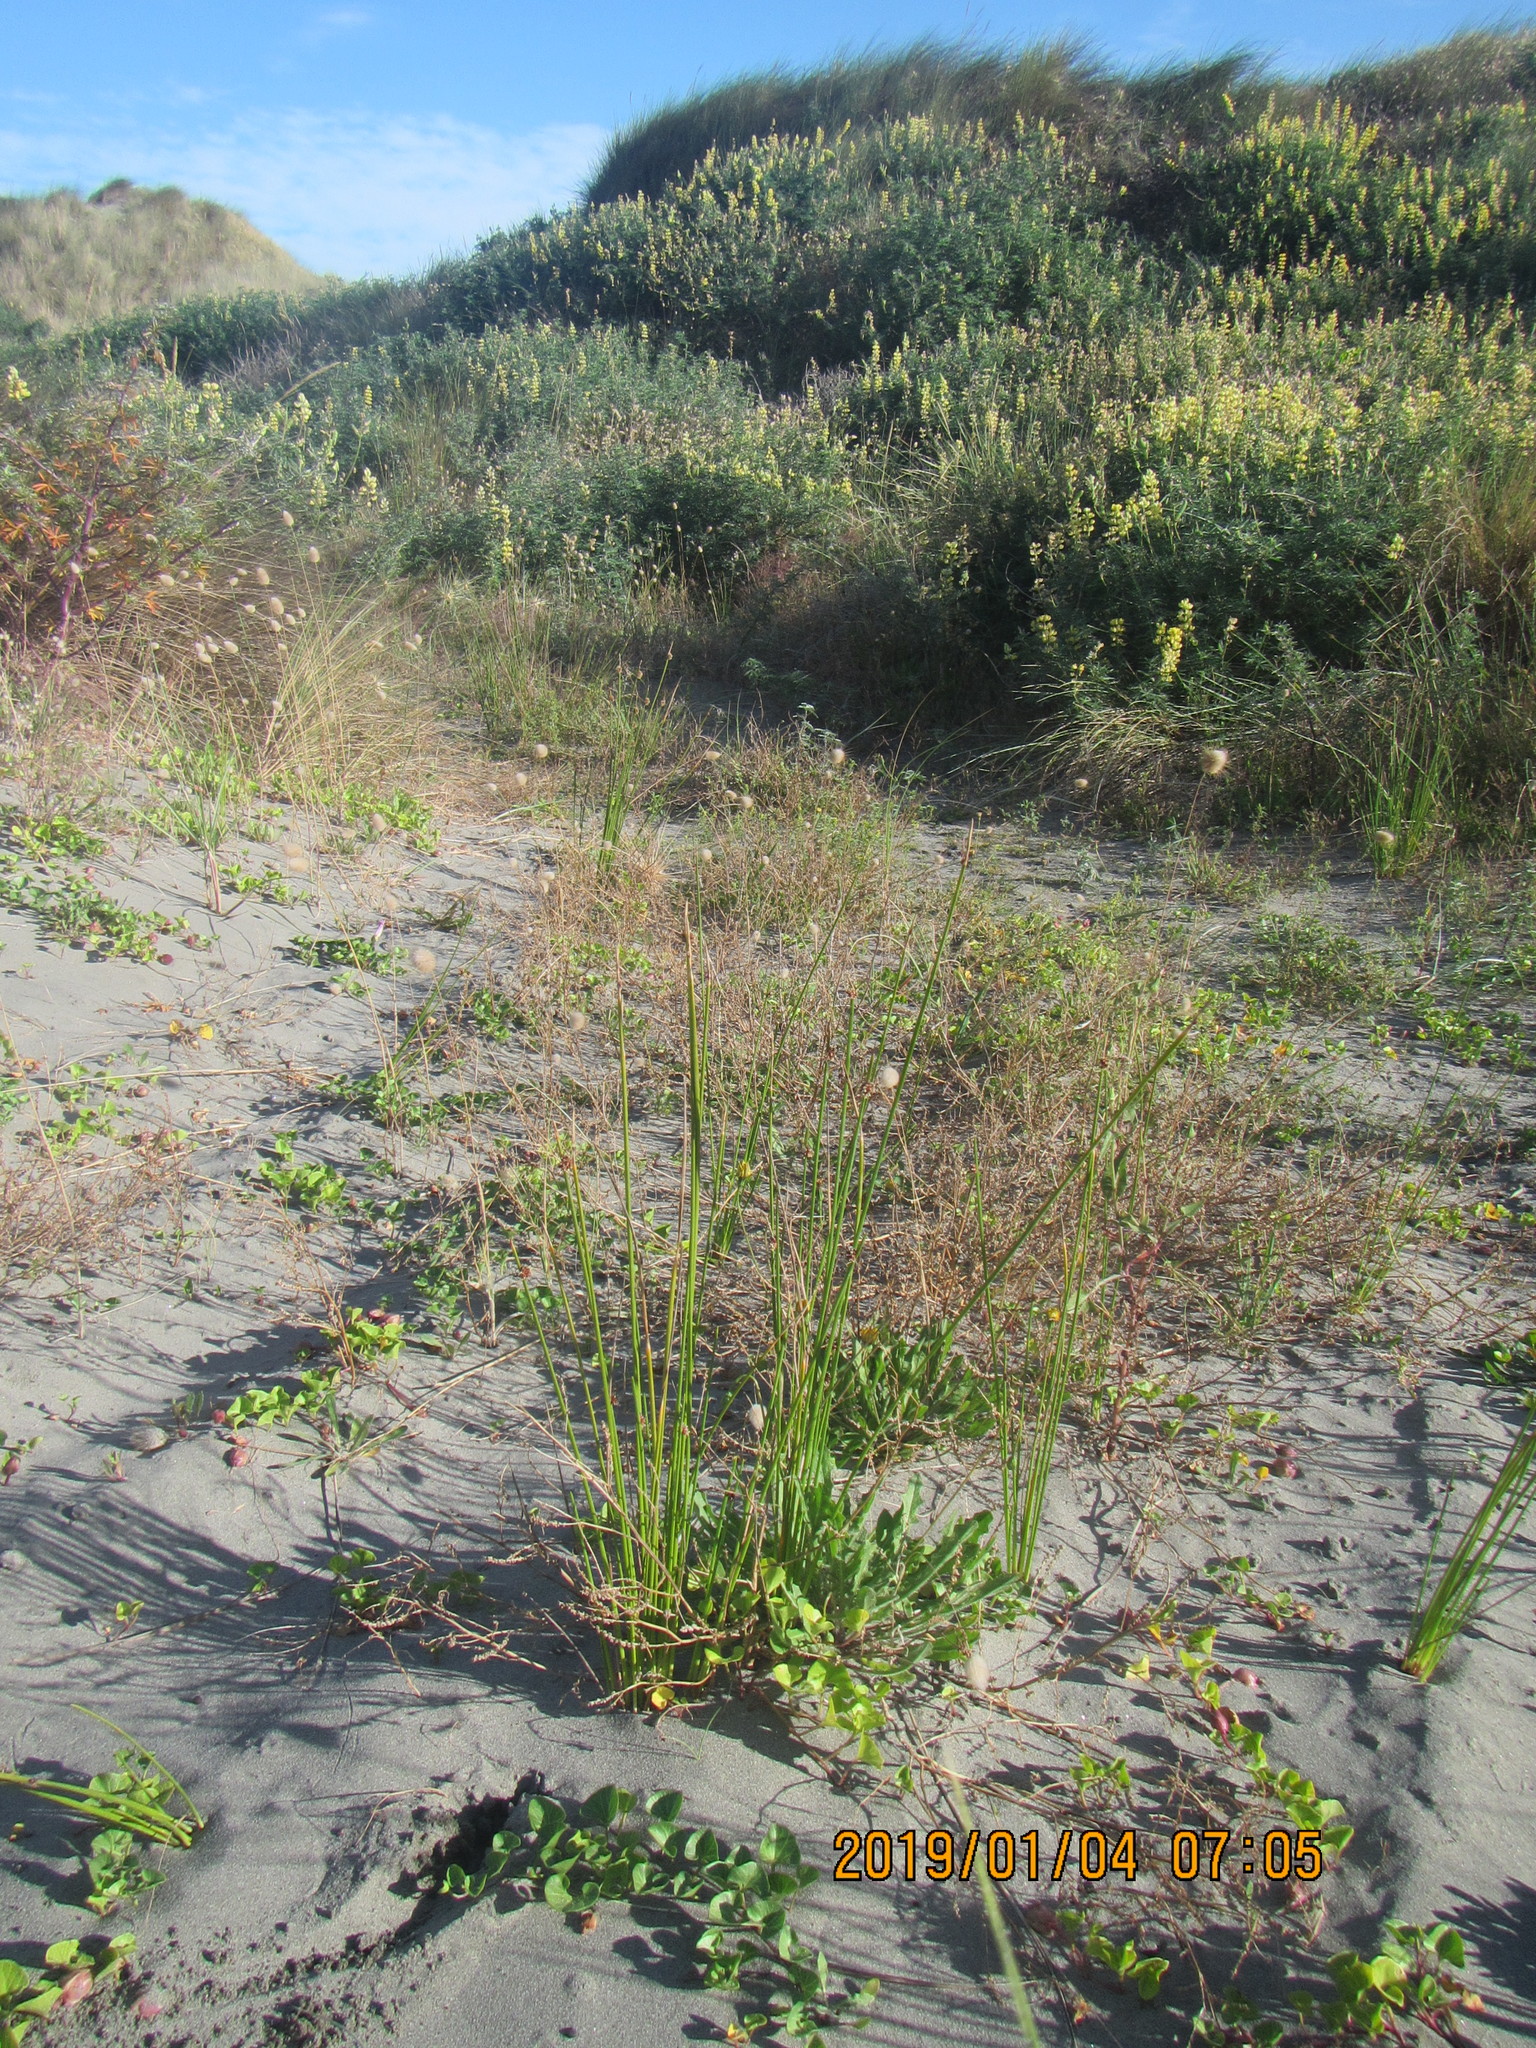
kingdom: Plantae
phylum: Tracheophyta
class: Liliopsida
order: Poales
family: Cyperaceae
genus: Ficinia
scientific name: Ficinia nodosa
